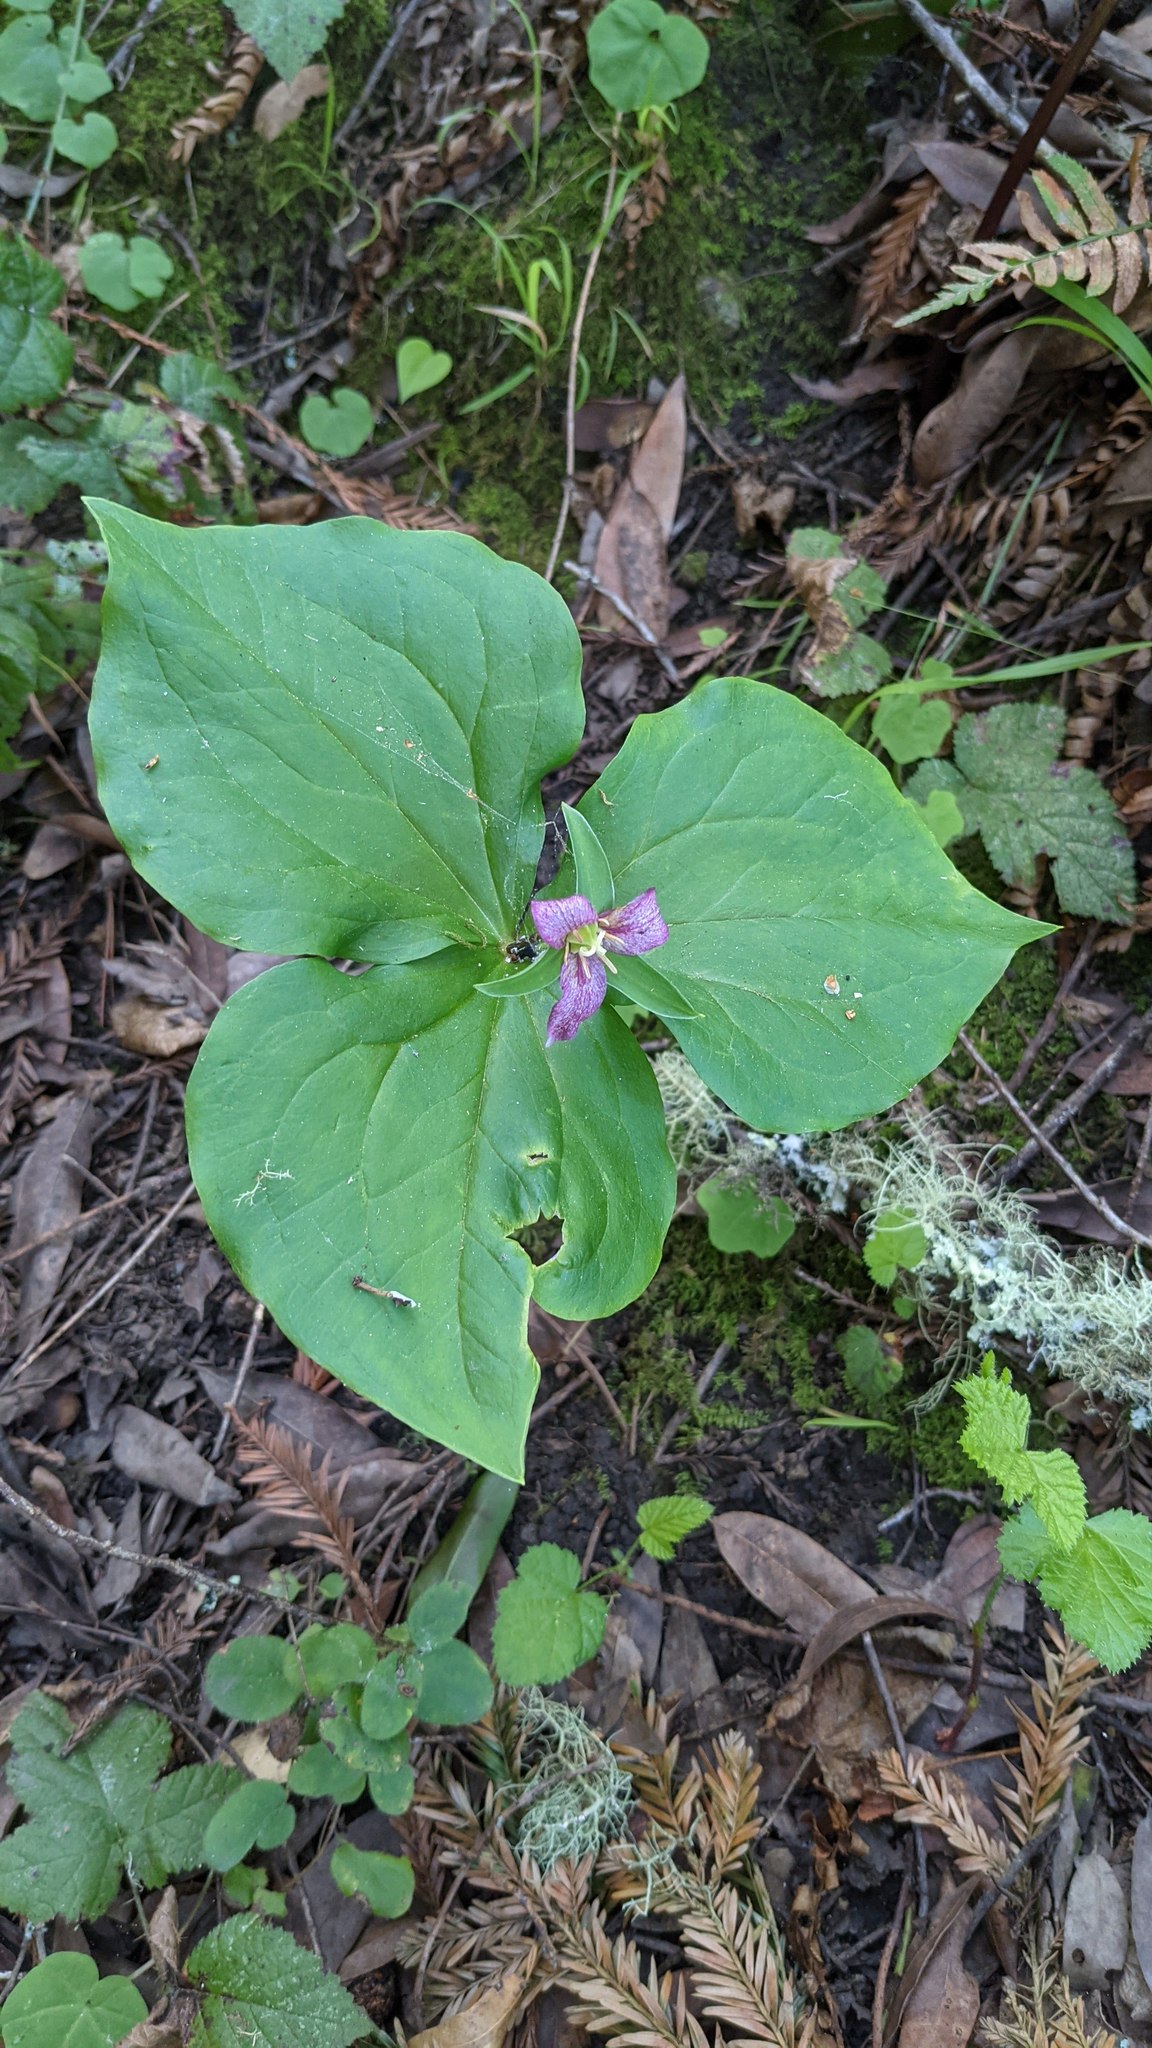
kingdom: Plantae
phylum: Tracheophyta
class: Liliopsida
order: Liliales
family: Melanthiaceae
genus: Trillium
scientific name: Trillium ovatum
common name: Pacific trillium
